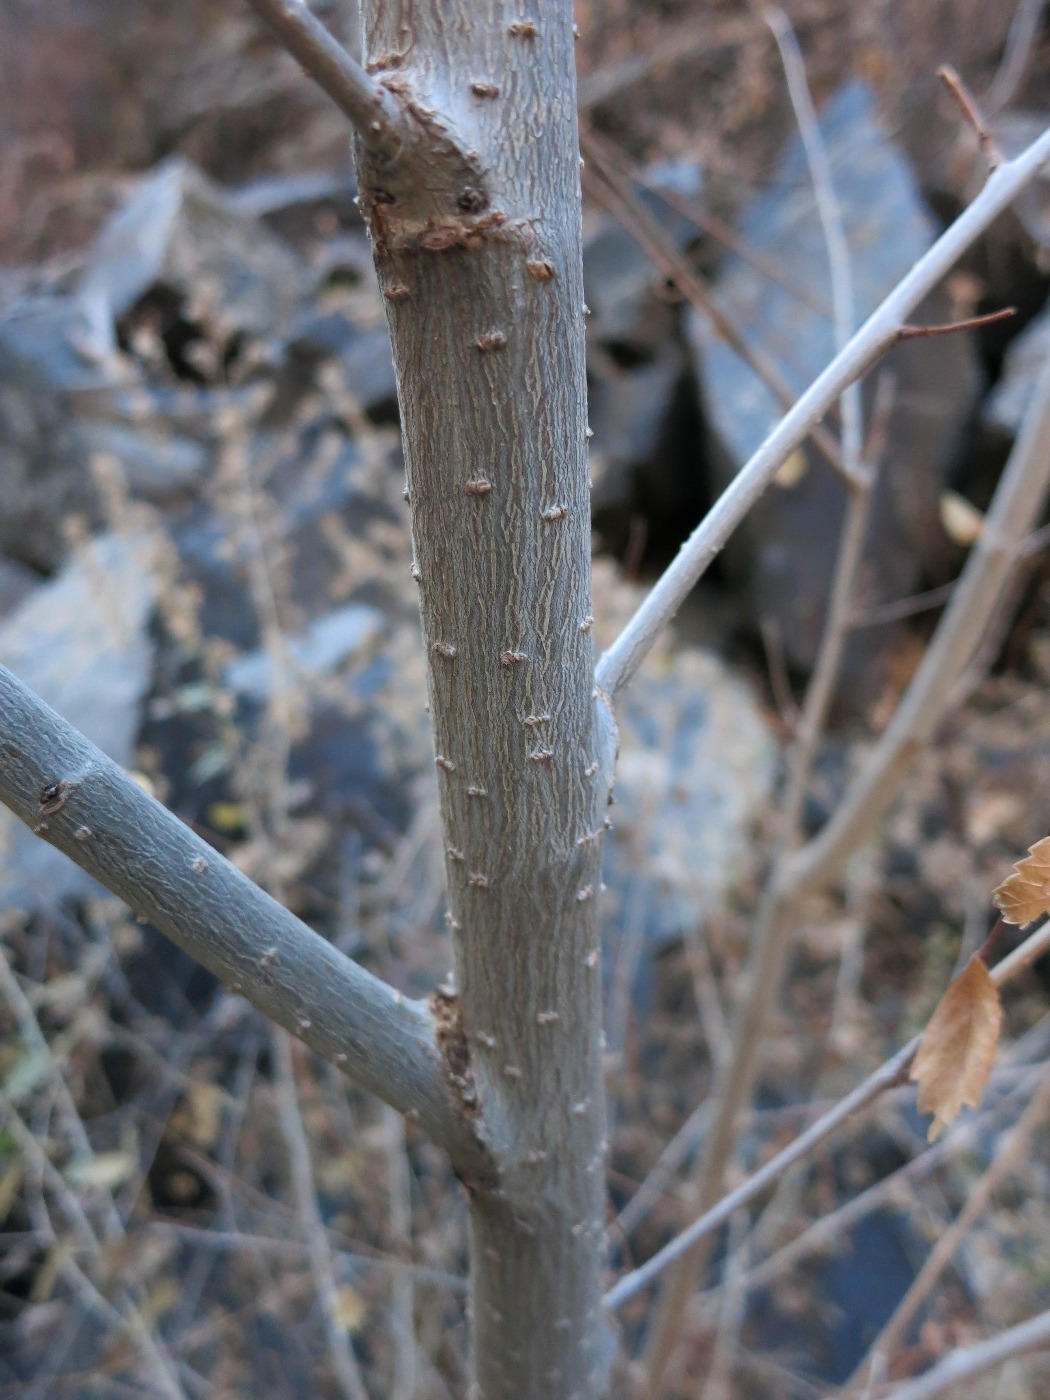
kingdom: Plantae
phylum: Tracheophyta
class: Magnoliopsida
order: Rosales
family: Ulmaceae
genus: Ulmus
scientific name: Ulmus pumila
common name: Siberian elm
